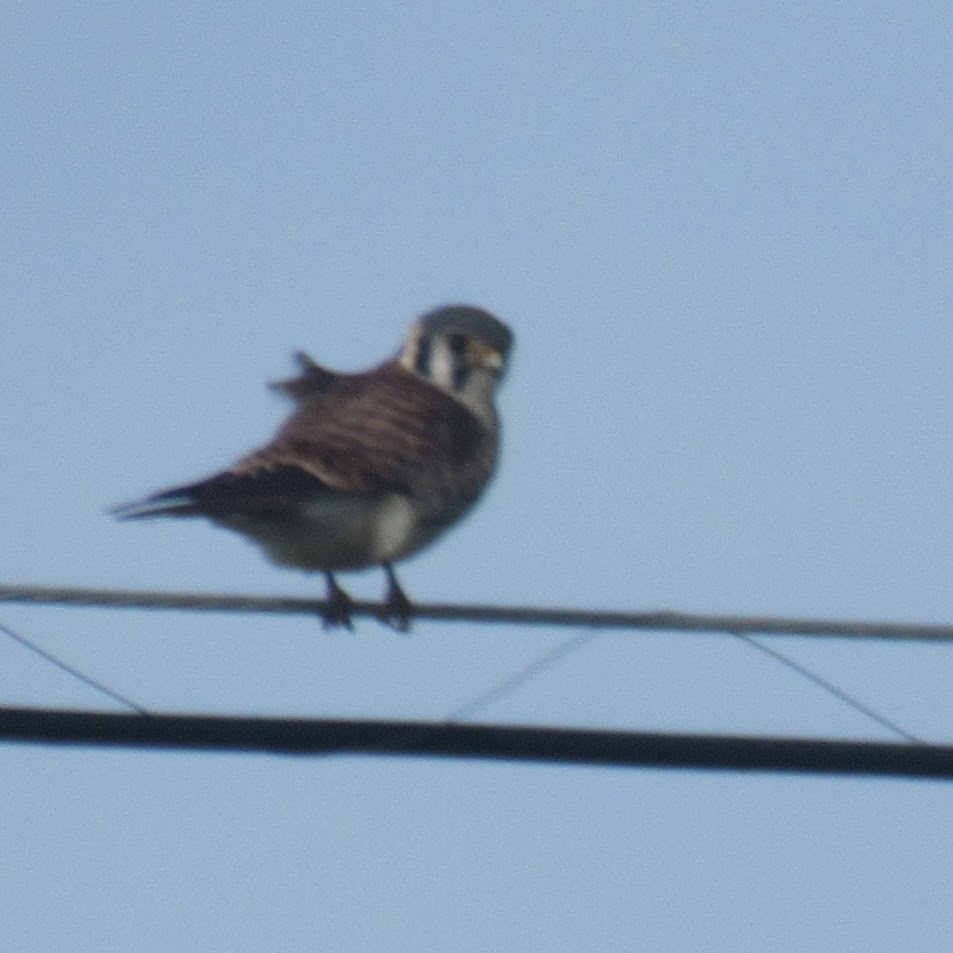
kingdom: Animalia
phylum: Chordata
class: Aves
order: Falconiformes
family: Falconidae
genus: Falco
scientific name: Falco sparverius
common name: American kestrel
